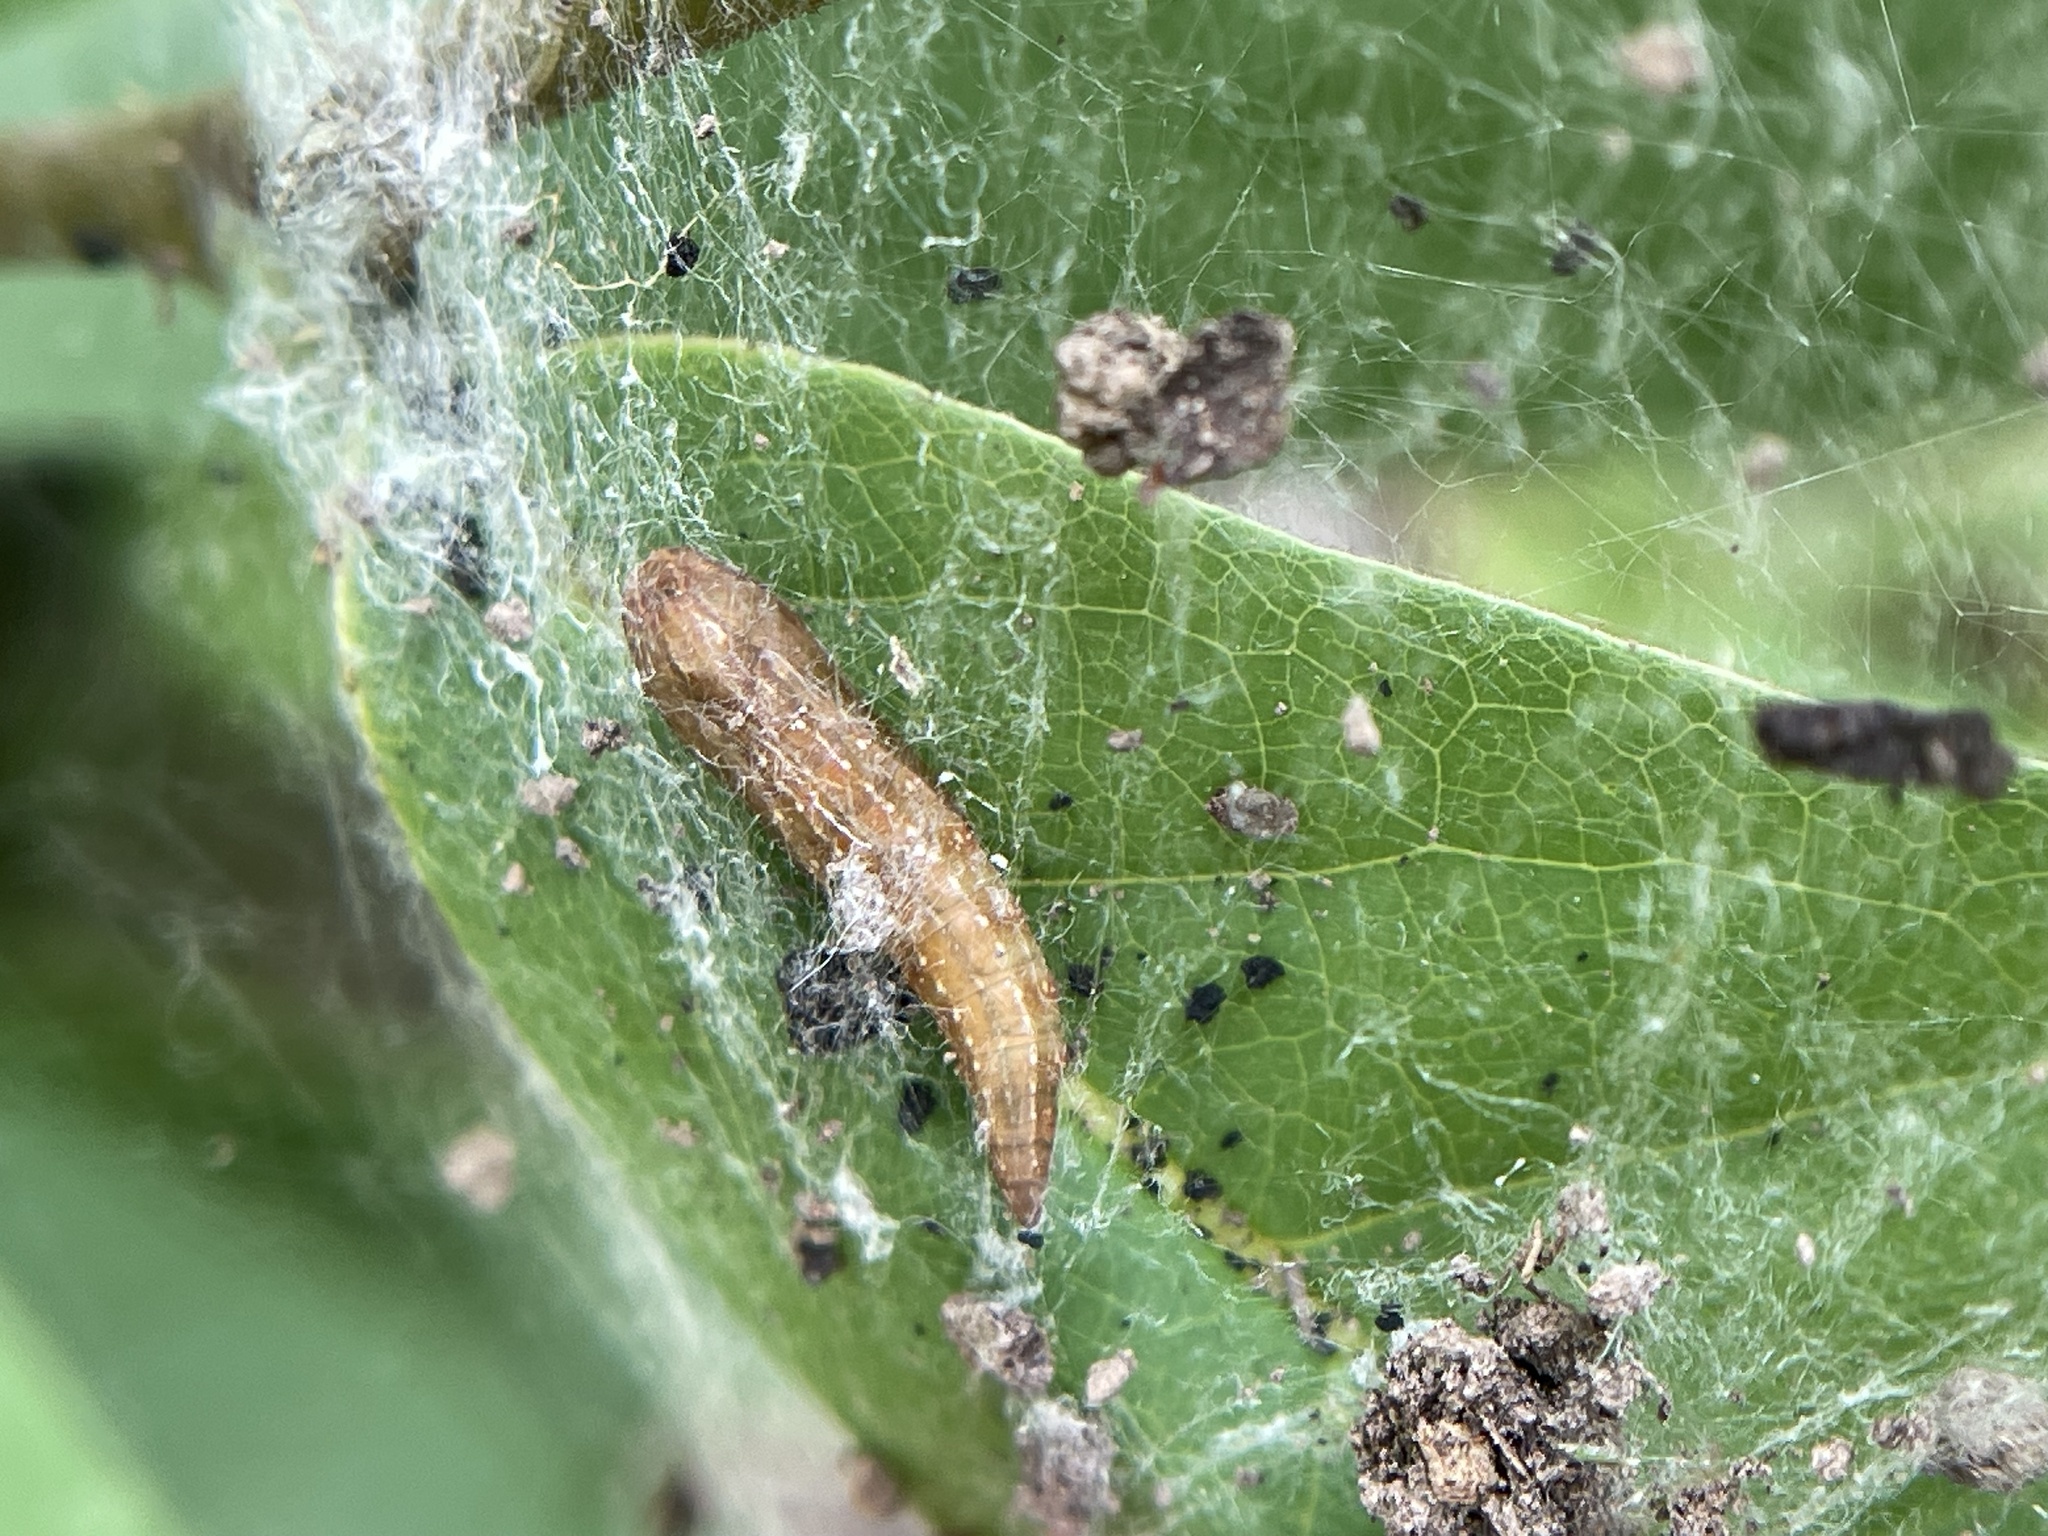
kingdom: Animalia
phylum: Arthropoda
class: Insecta
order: Lepidoptera
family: Attevidae
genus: Atteva
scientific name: Atteva punctella
